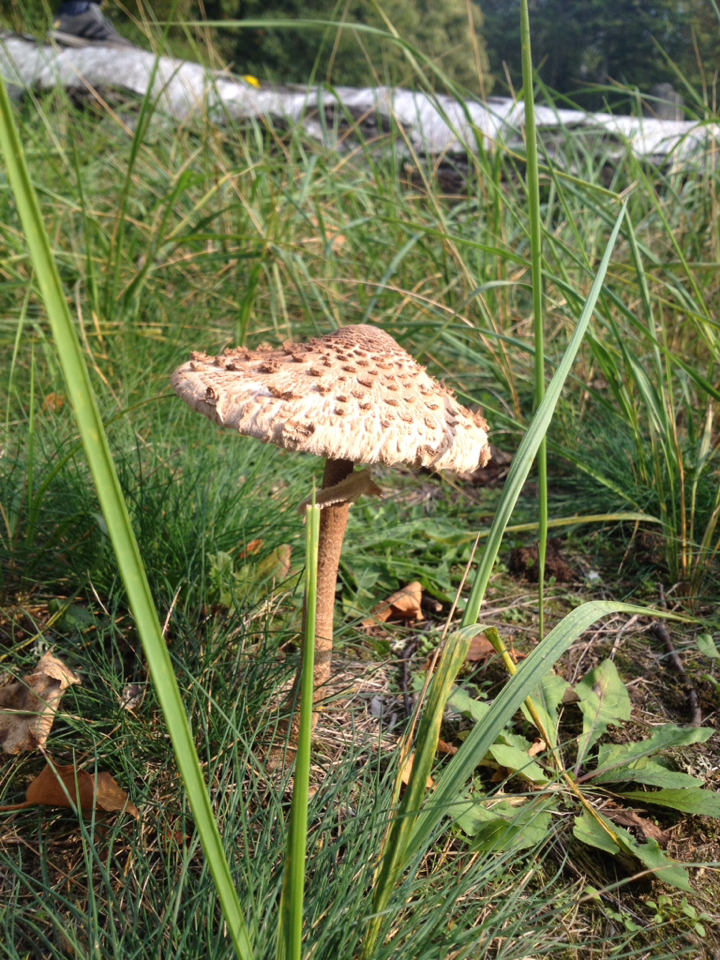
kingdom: Fungi
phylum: Basidiomycota
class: Agaricomycetes
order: Agaricales
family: Agaricaceae
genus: Macrolepiota
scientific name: Macrolepiota procera
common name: Parasol
